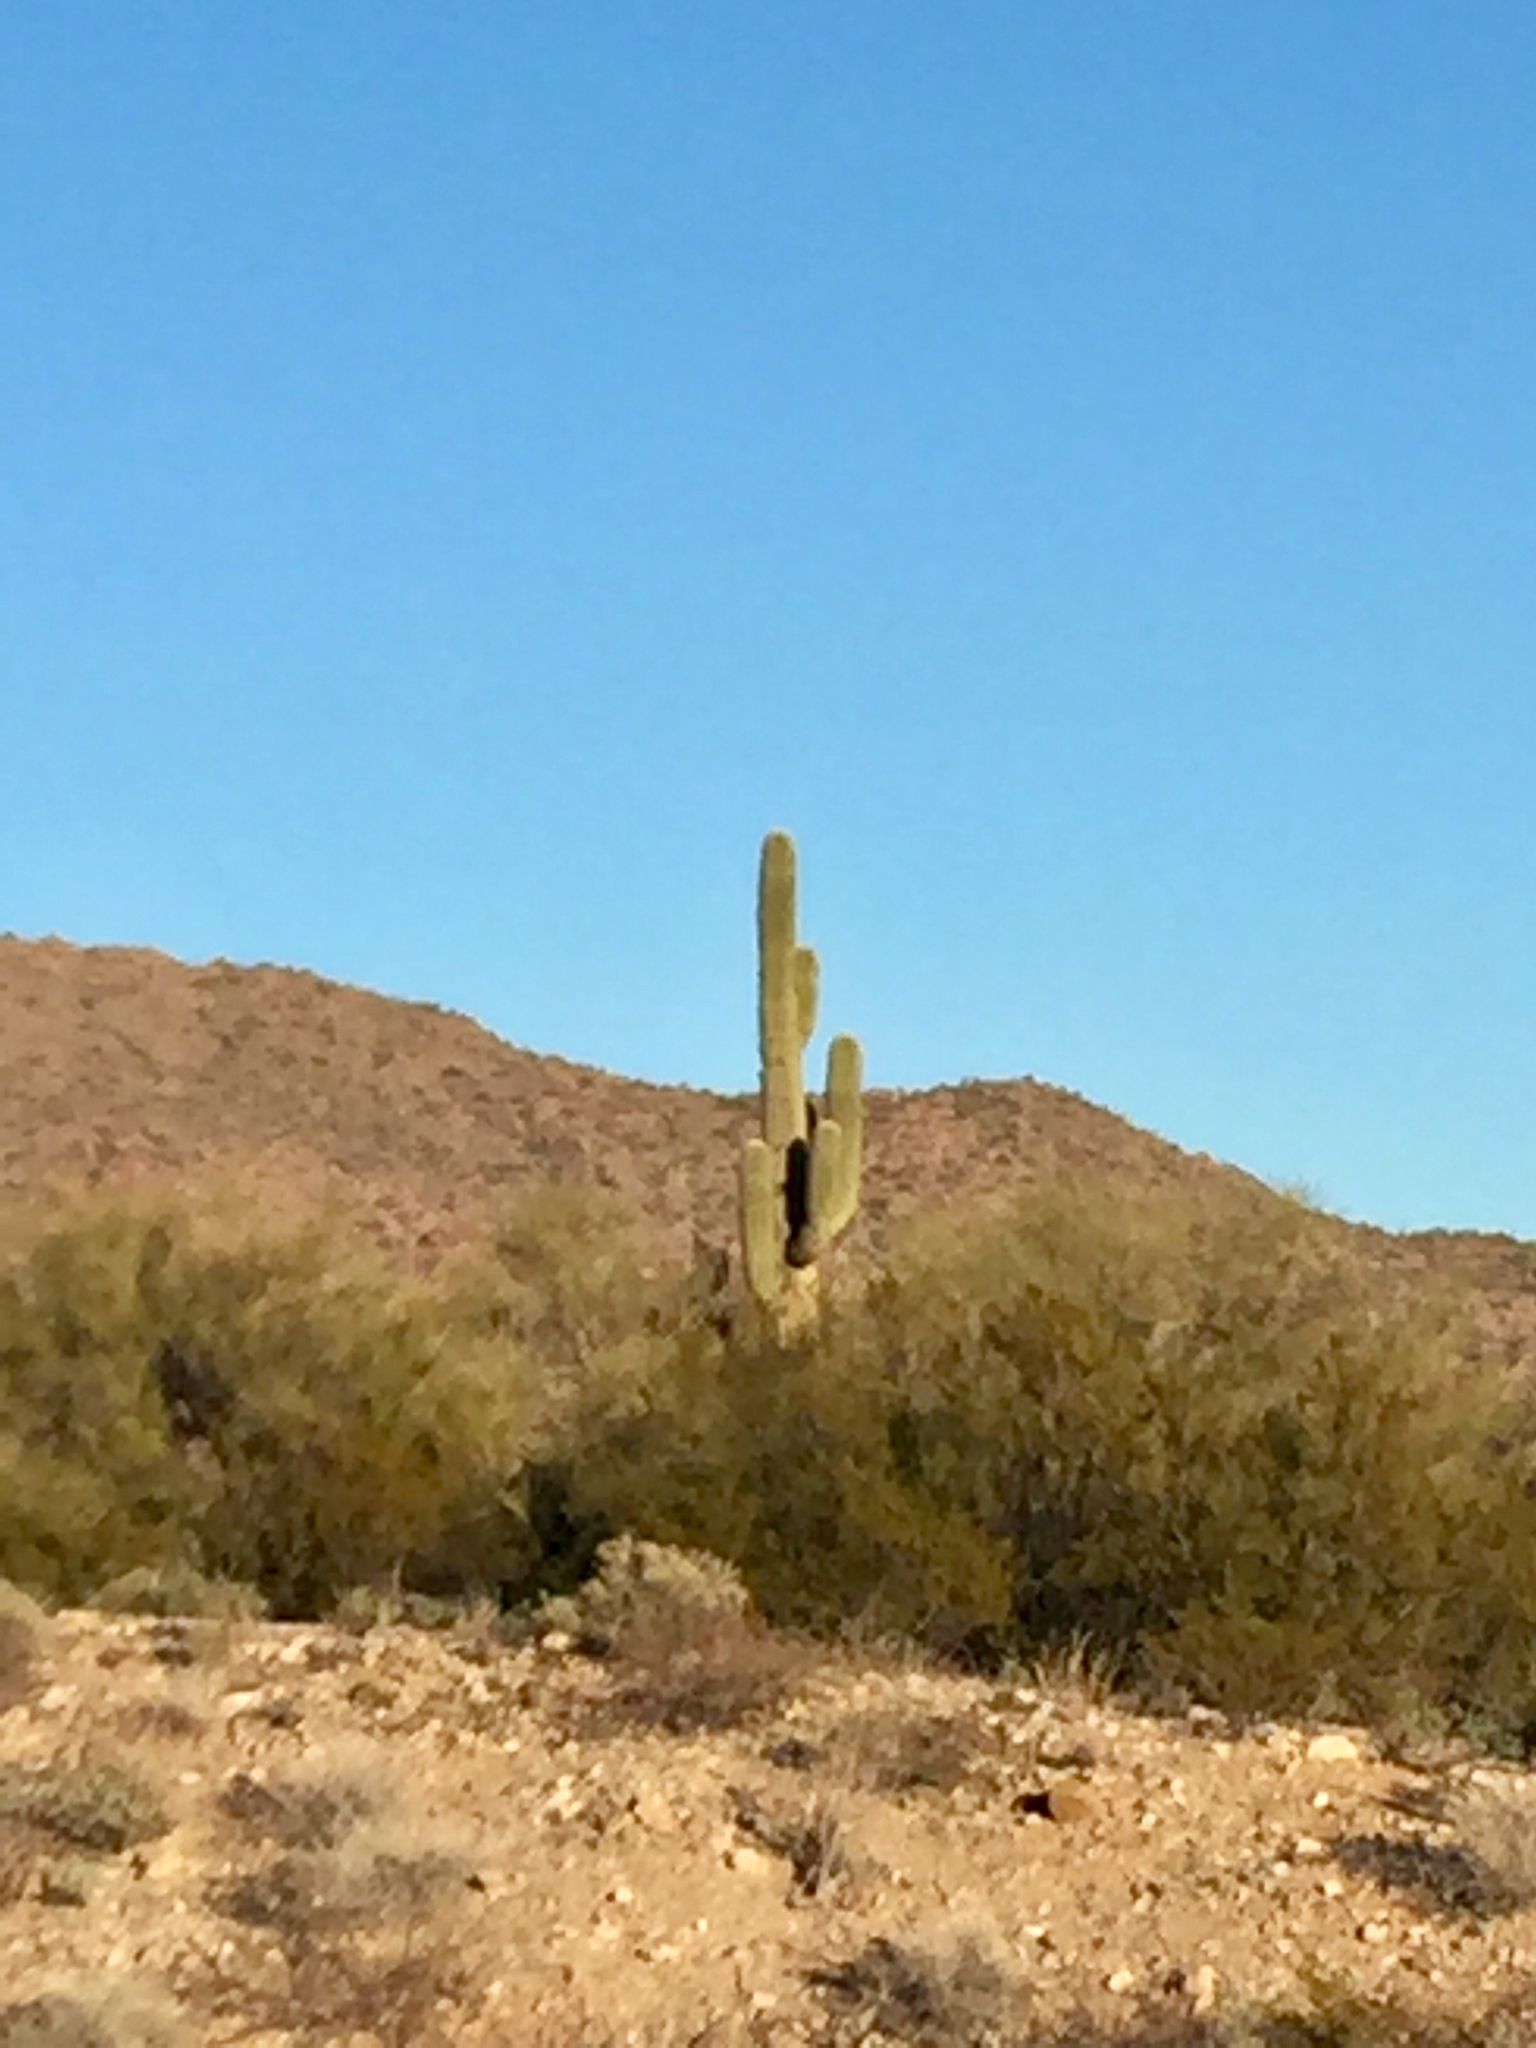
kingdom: Plantae
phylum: Tracheophyta
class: Magnoliopsida
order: Caryophyllales
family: Cactaceae
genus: Carnegiea
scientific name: Carnegiea gigantea
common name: Saguaro
